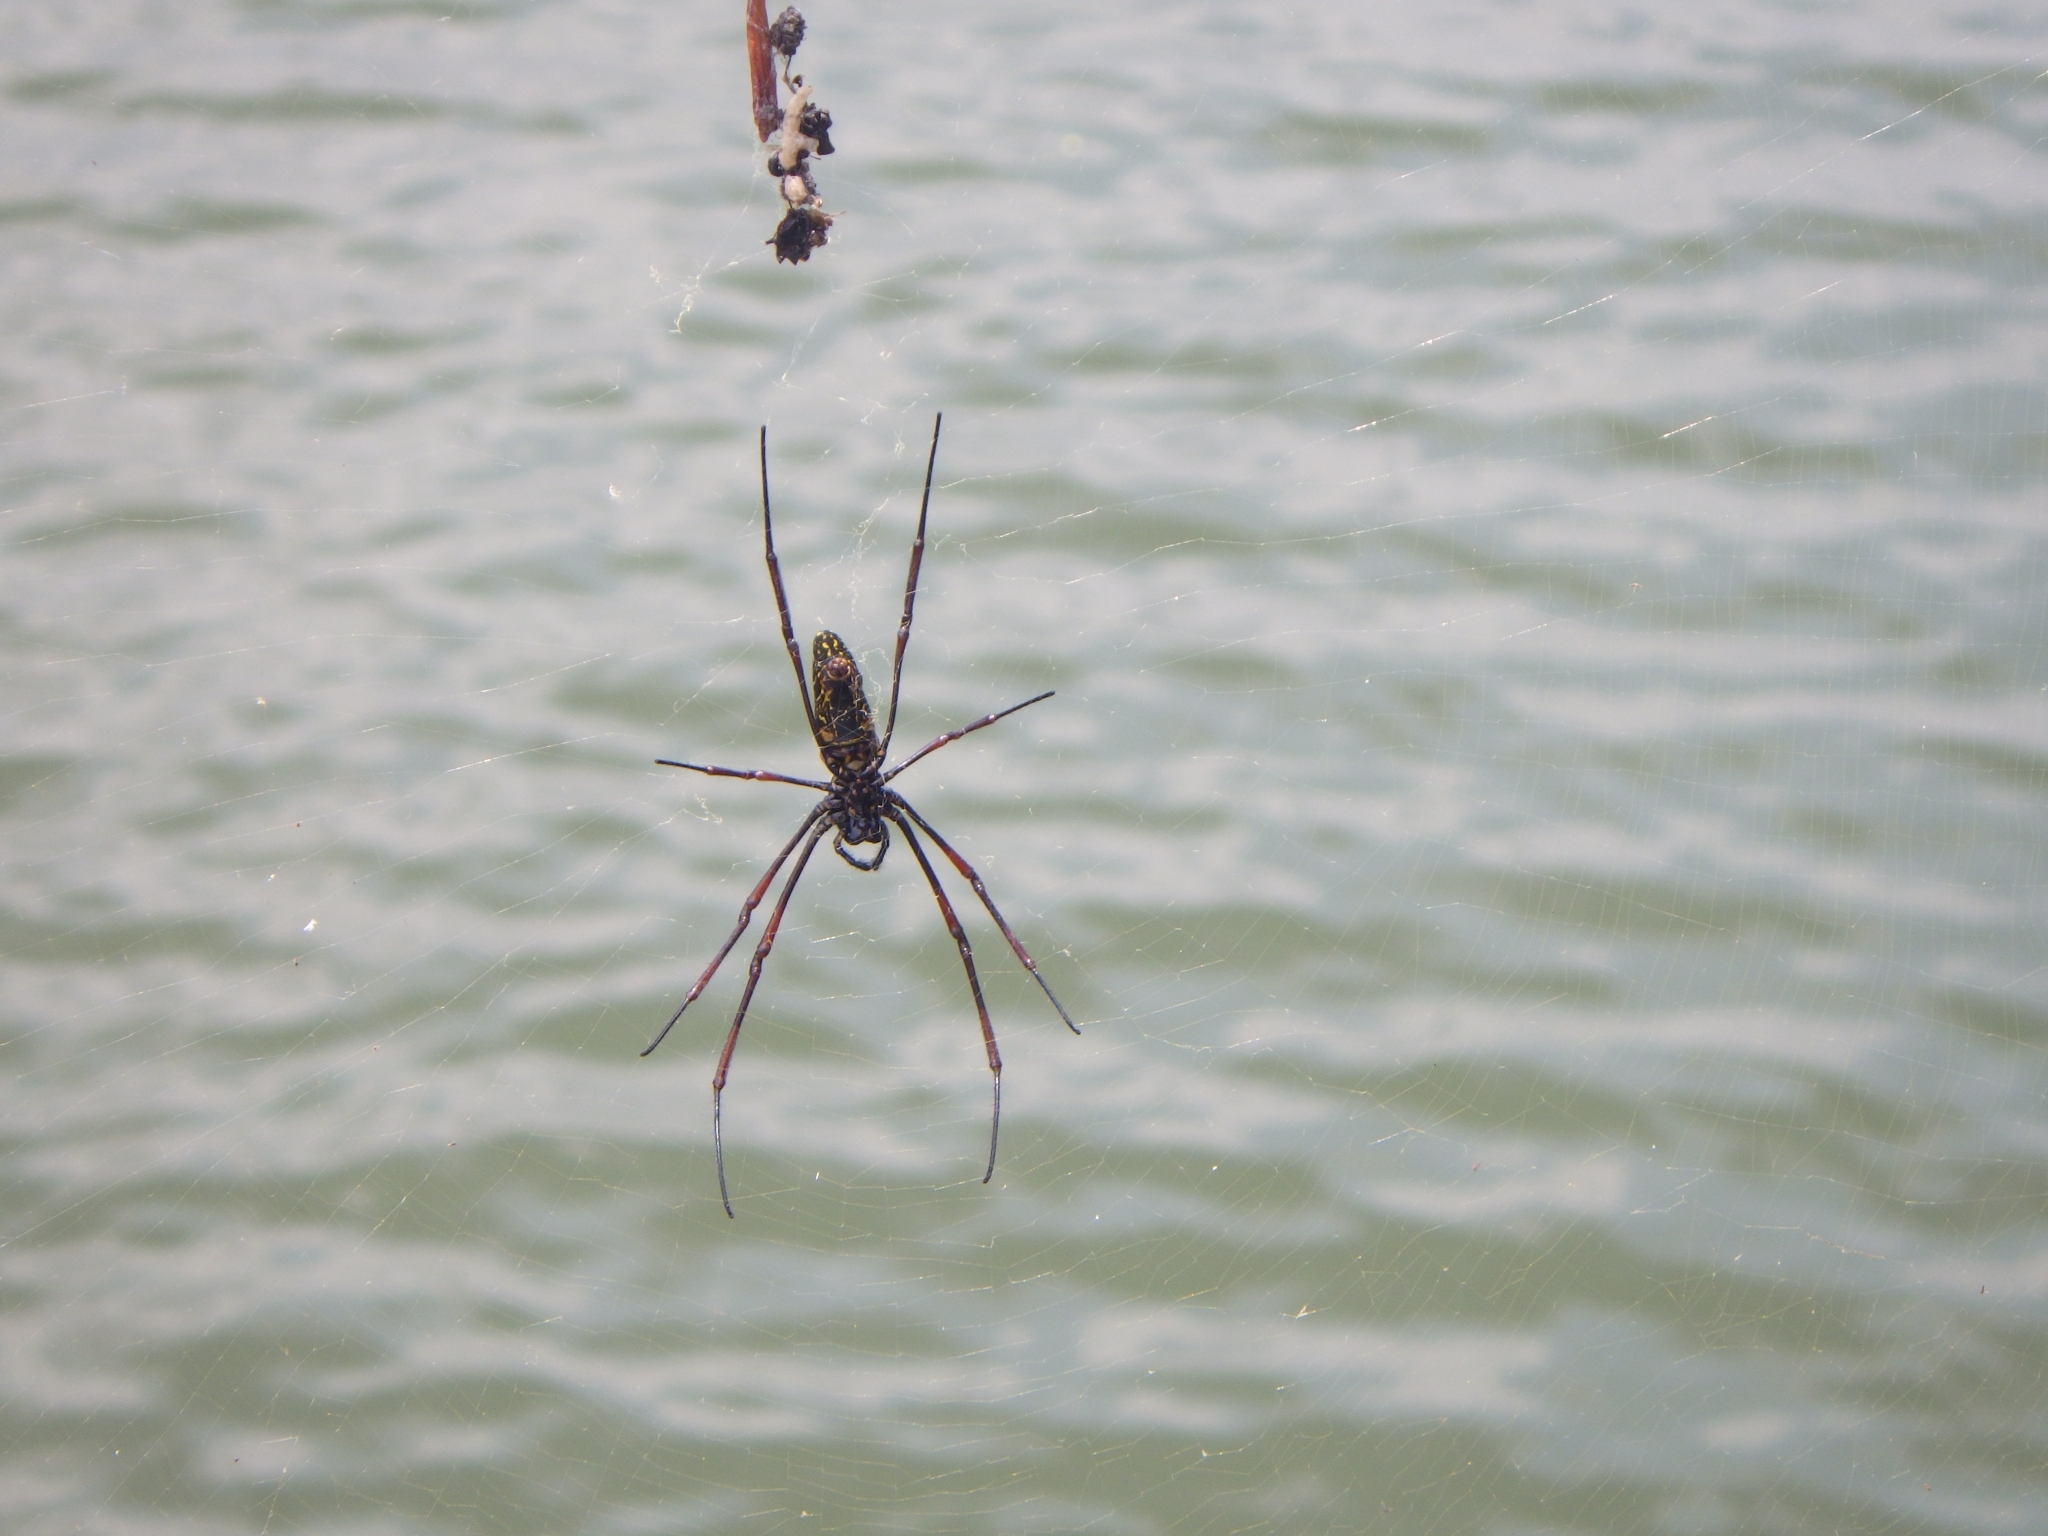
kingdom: Animalia
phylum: Arthropoda
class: Arachnida
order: Araneae
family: Araneidae
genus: Nephila
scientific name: Nephila pilipes
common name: Giant golden orb weaver
